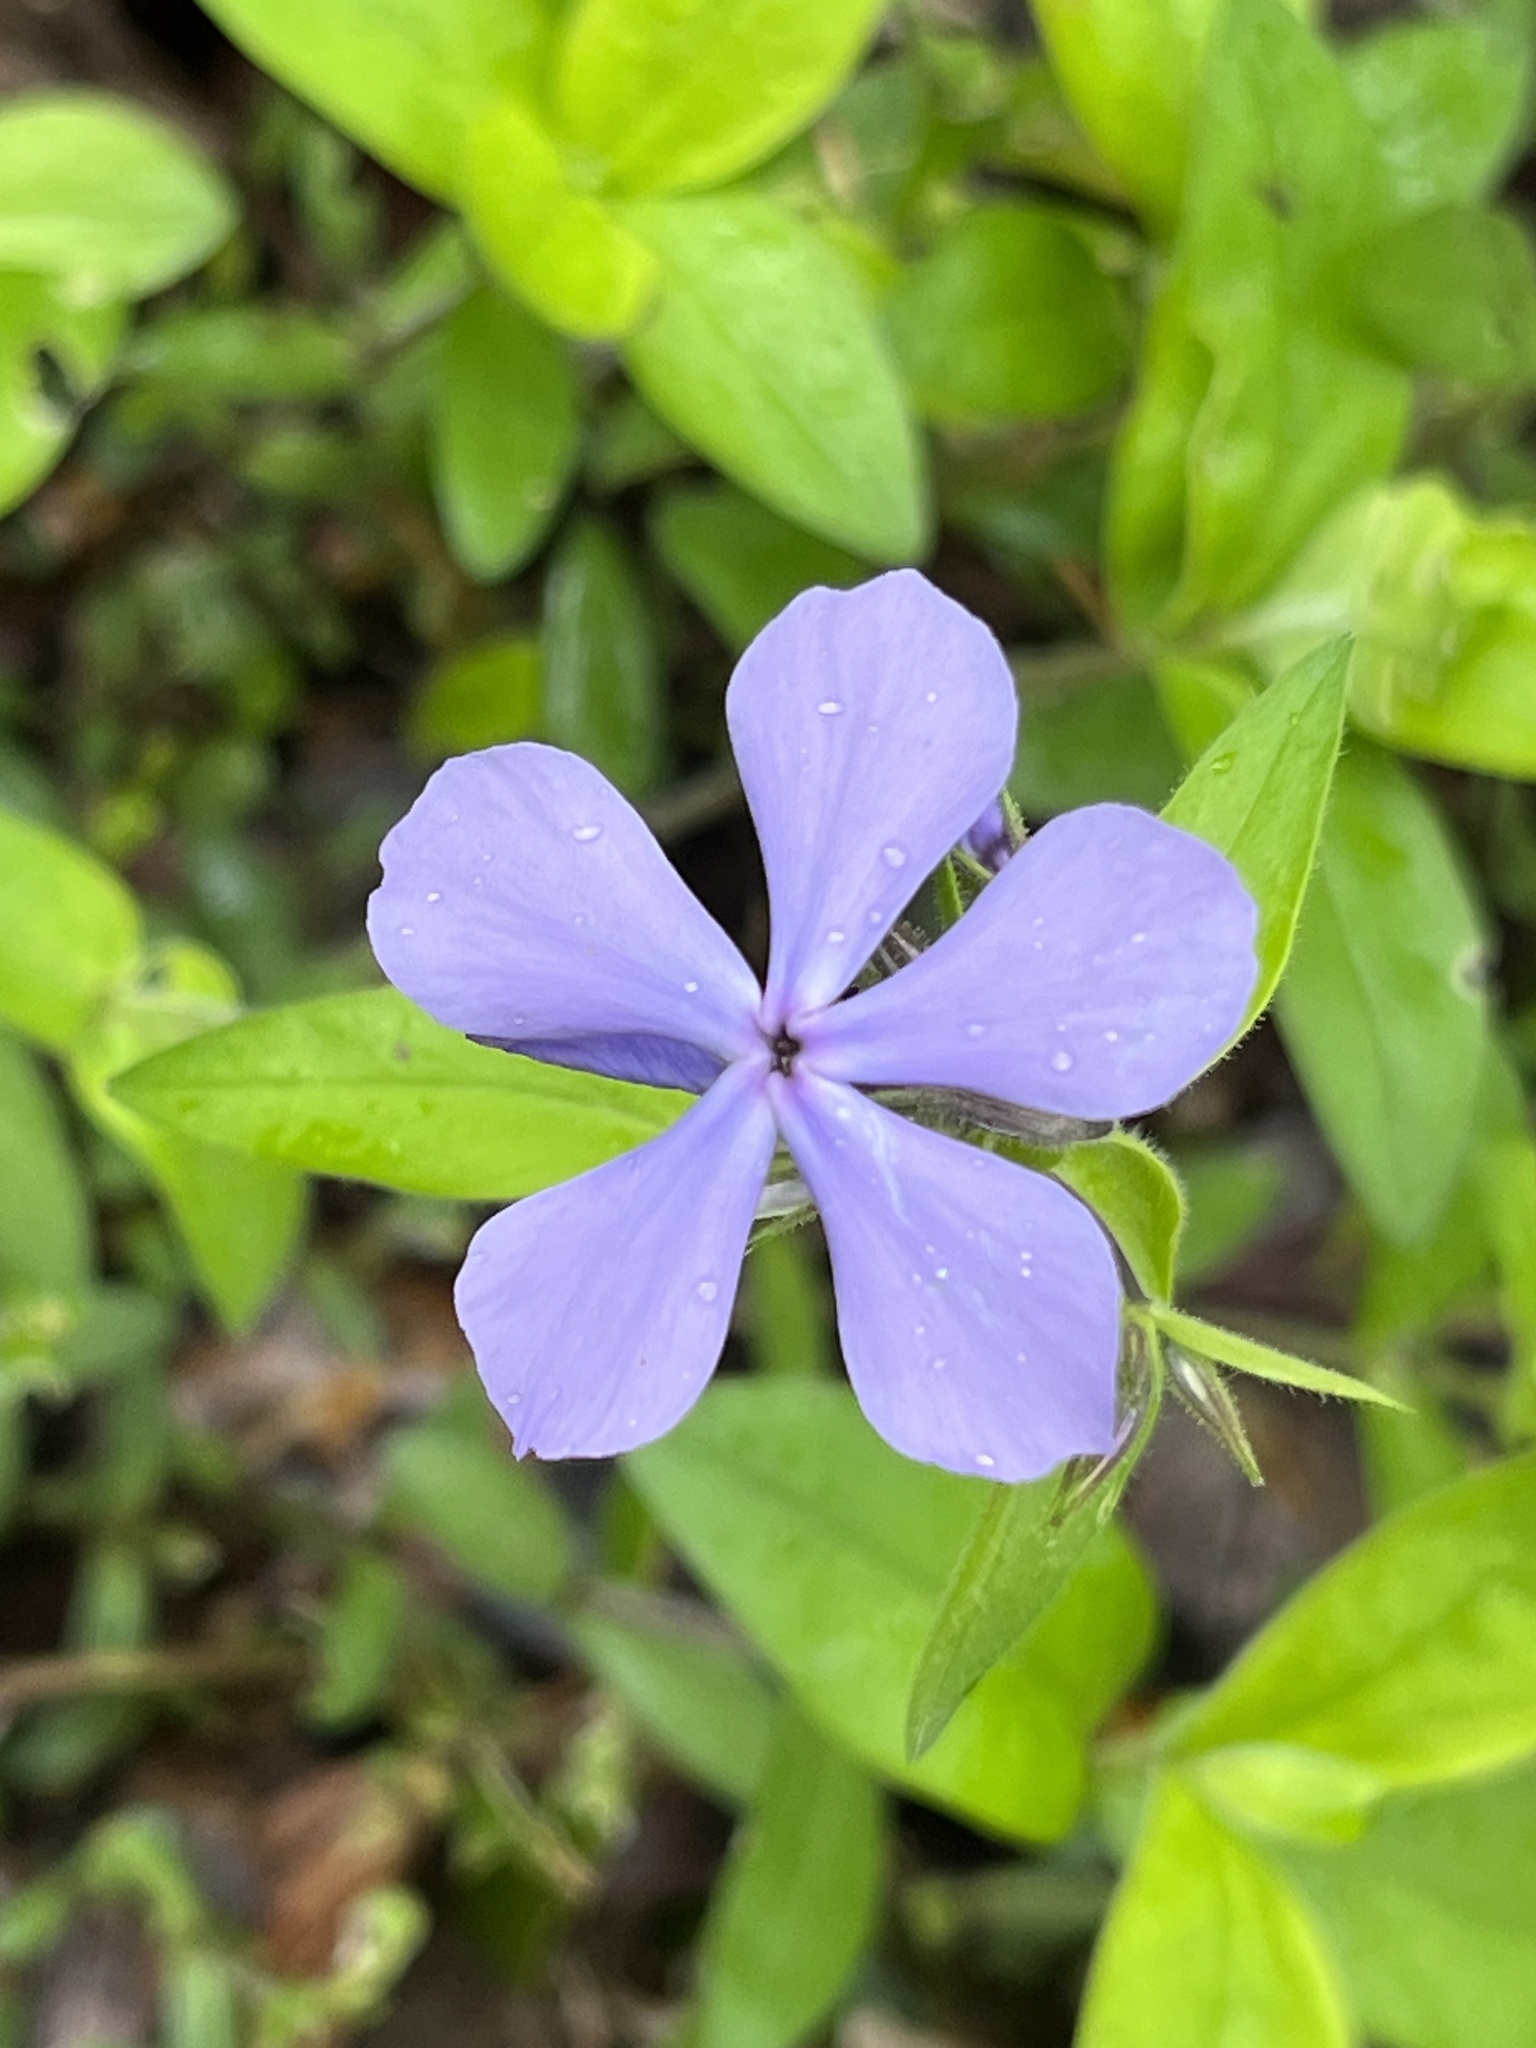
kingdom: Plantae
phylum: Tracheophyta
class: Magnoliopsida
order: Ericales
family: Polemoniaceae
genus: Phlox
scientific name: Phlox divaricata
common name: Blue phlox
